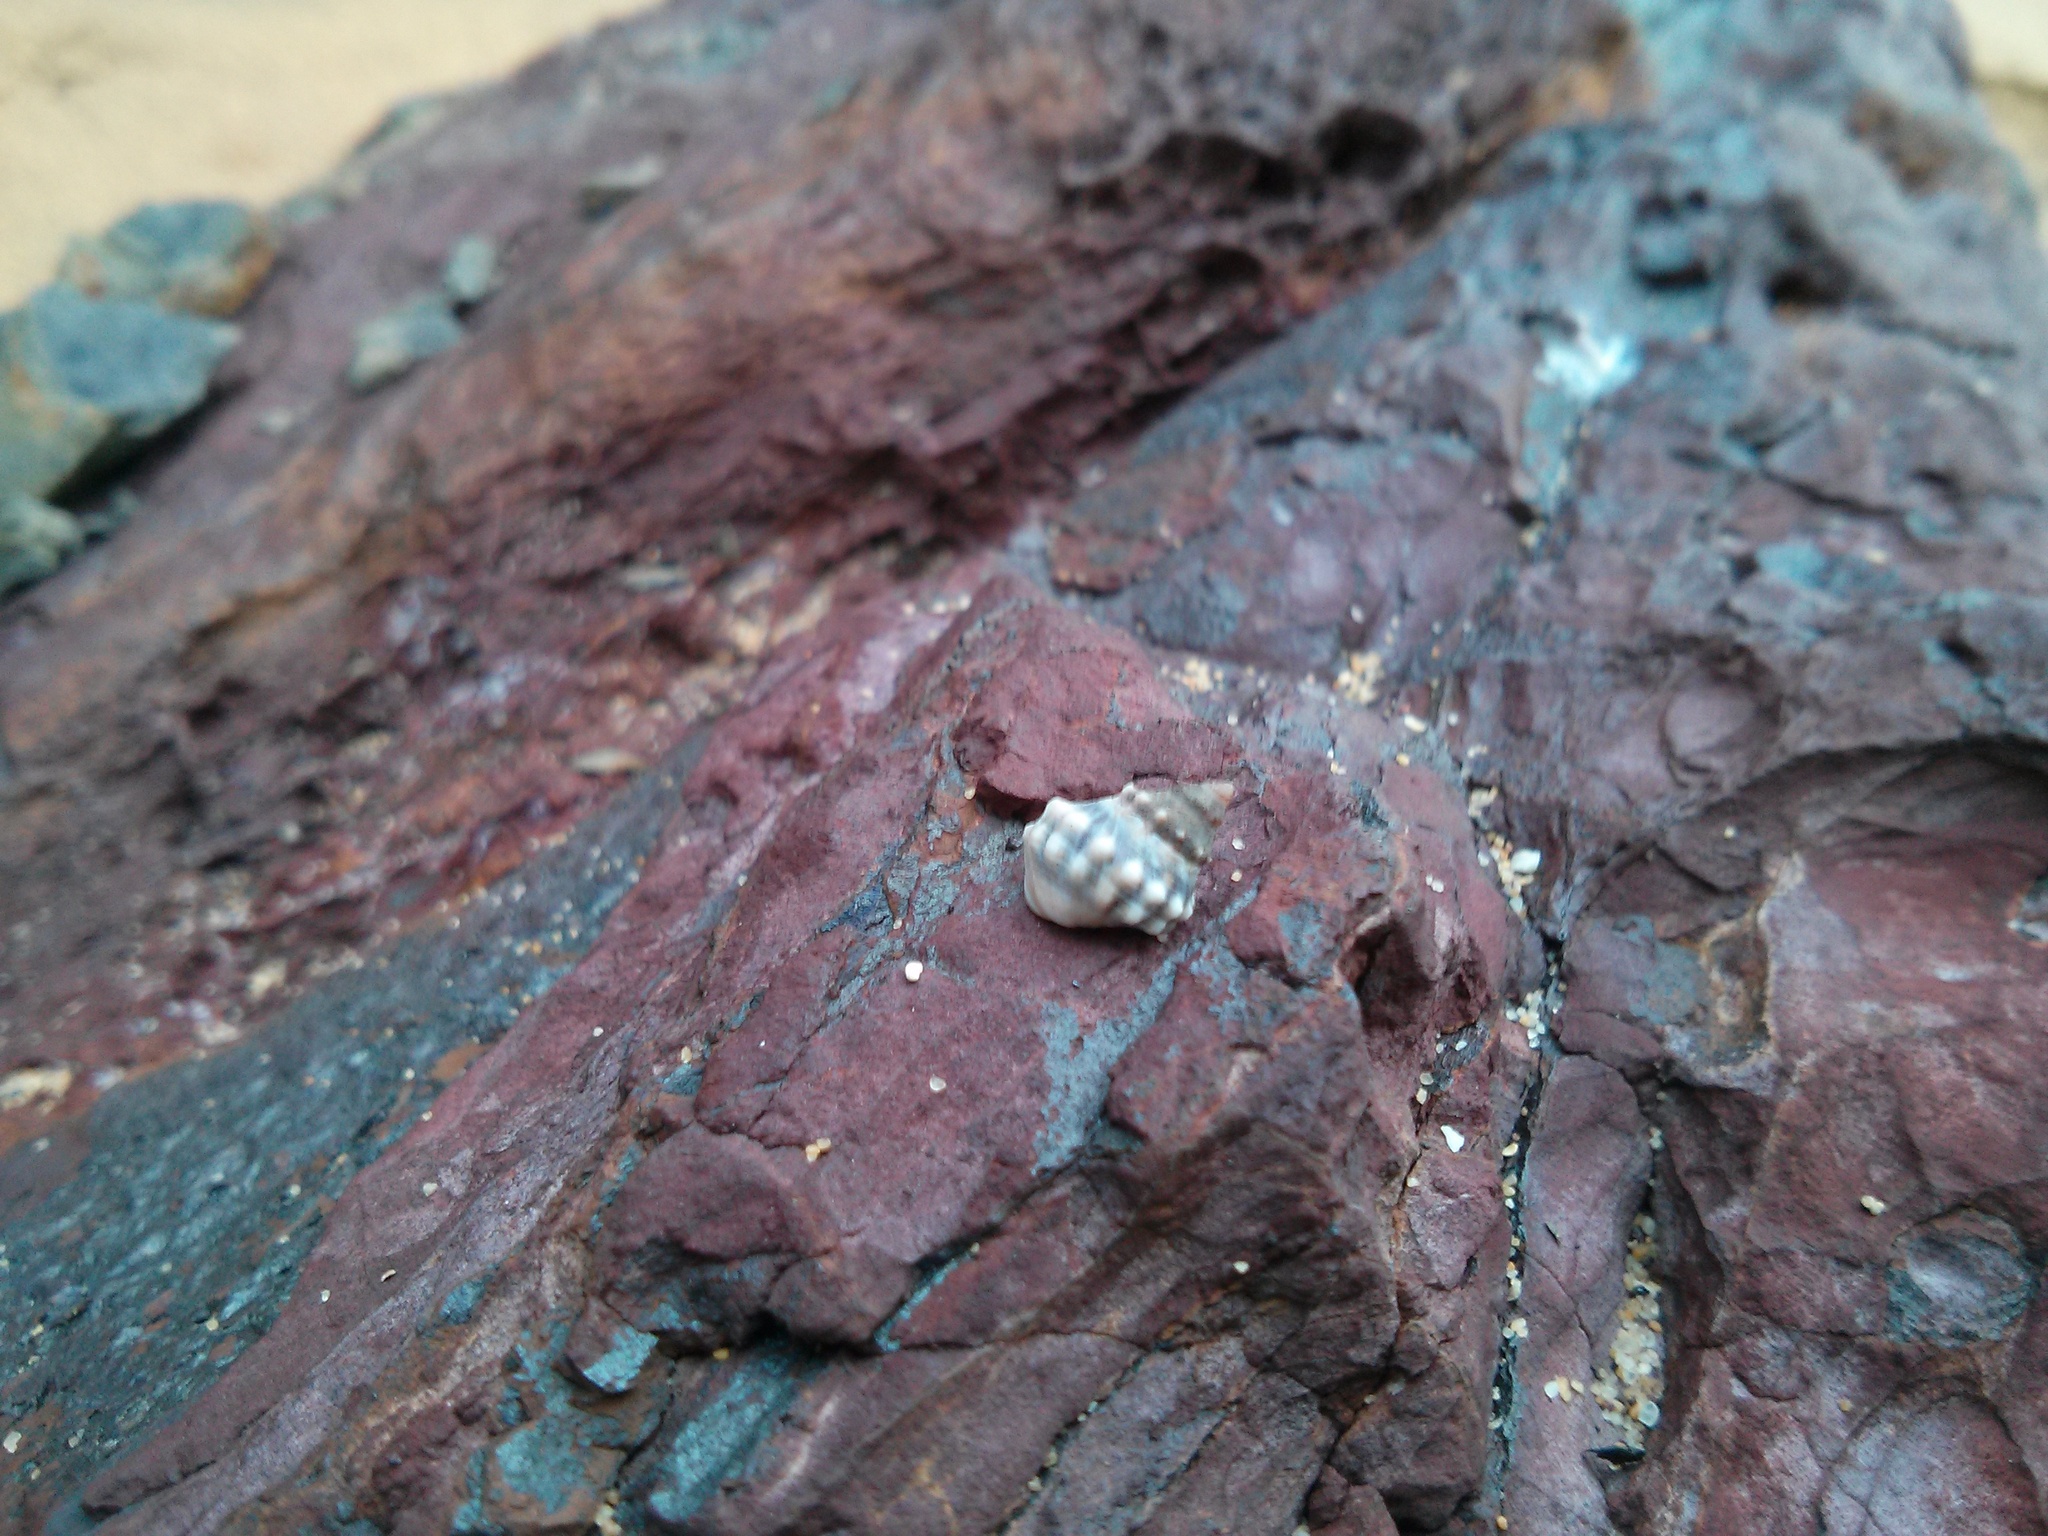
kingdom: Animalia
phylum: Mollusca
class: Gastropoda
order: Littorinimorpha
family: Littorinidae
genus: Nodilittorina
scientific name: Nodilittorina pyramidalis
